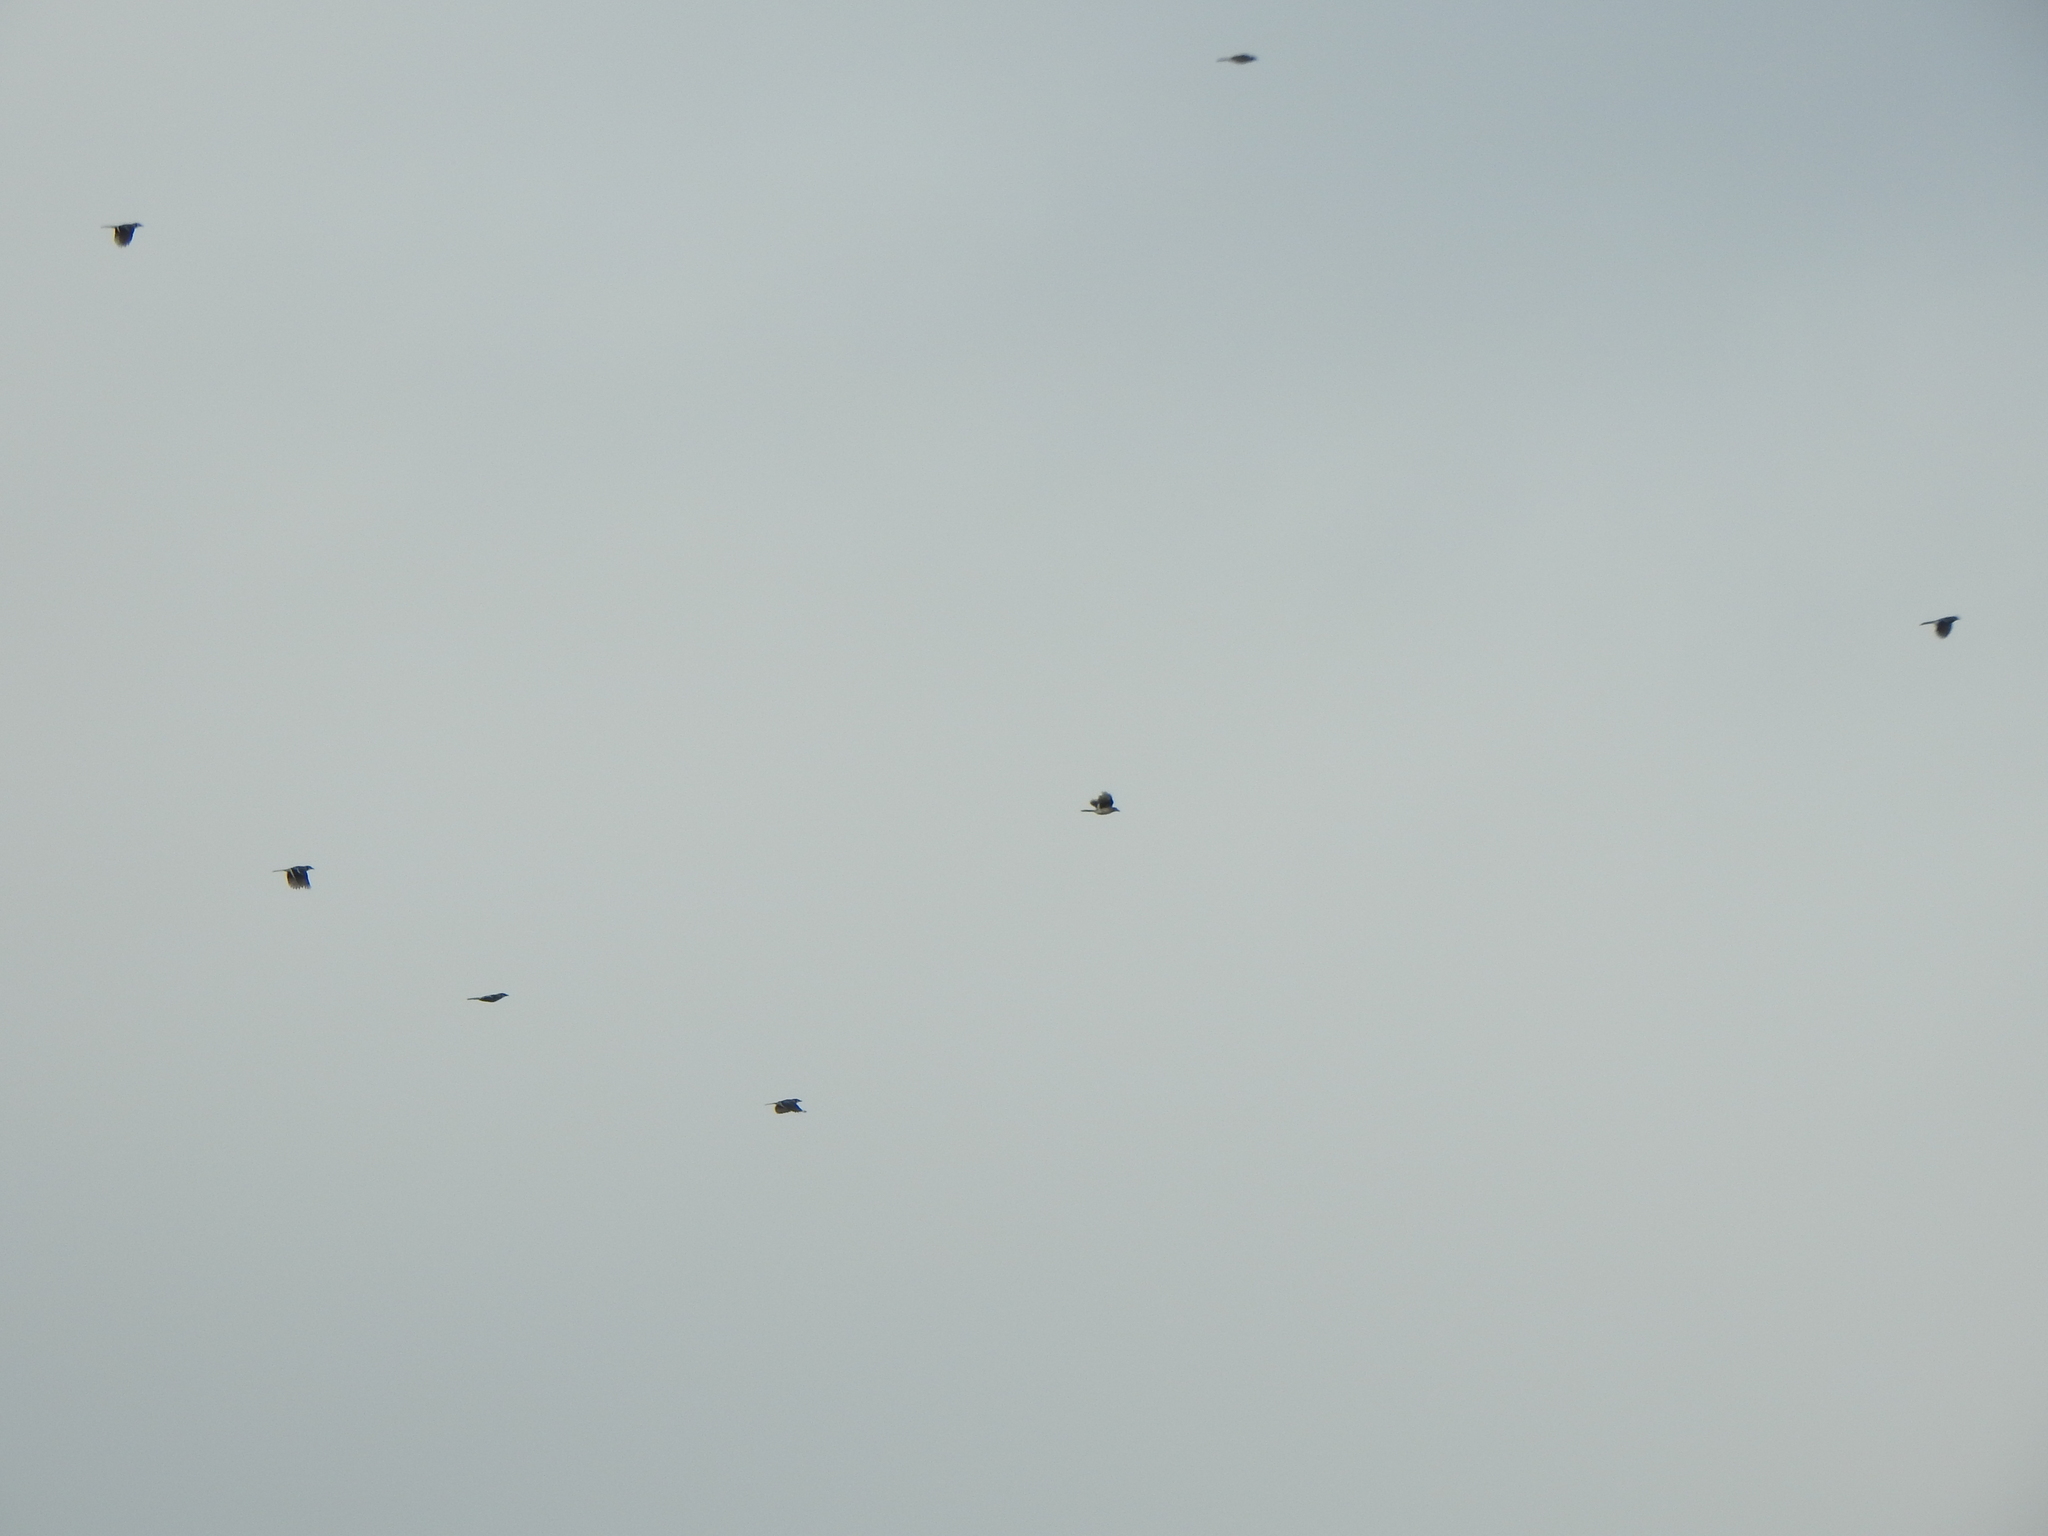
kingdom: Animalia
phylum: Chordata
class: Aves
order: Passeriformes
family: Corvidae
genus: Cyanocitta
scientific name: Cyanocitta cristata
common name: Blue jay
